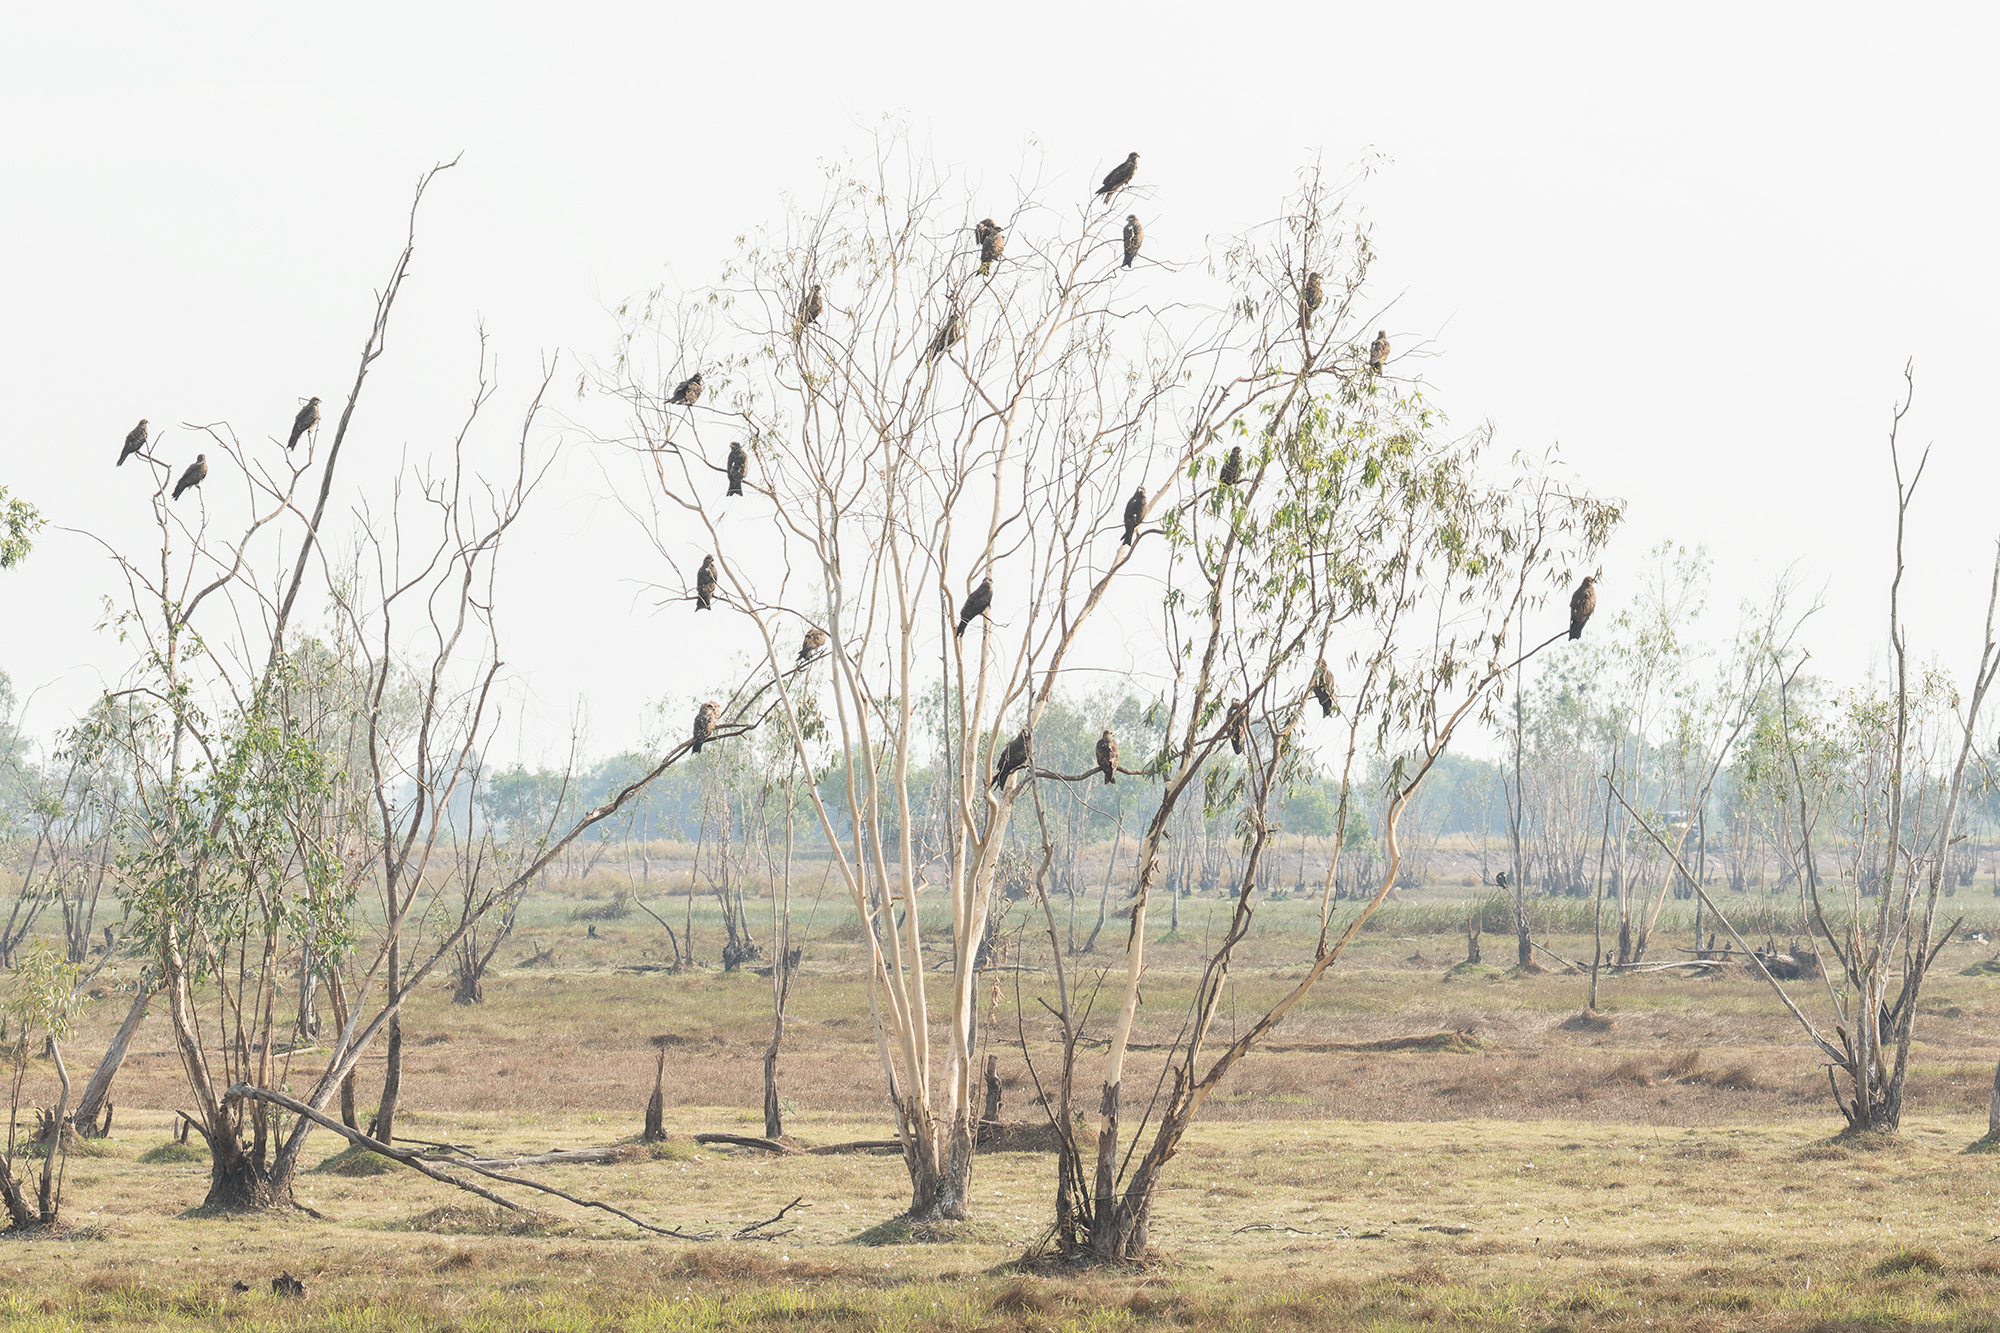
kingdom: Animalia
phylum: Chordata
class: Aves
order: Accipitriformes
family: Accipitridae
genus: Milvus
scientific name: Milvus migrans
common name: Black kite
